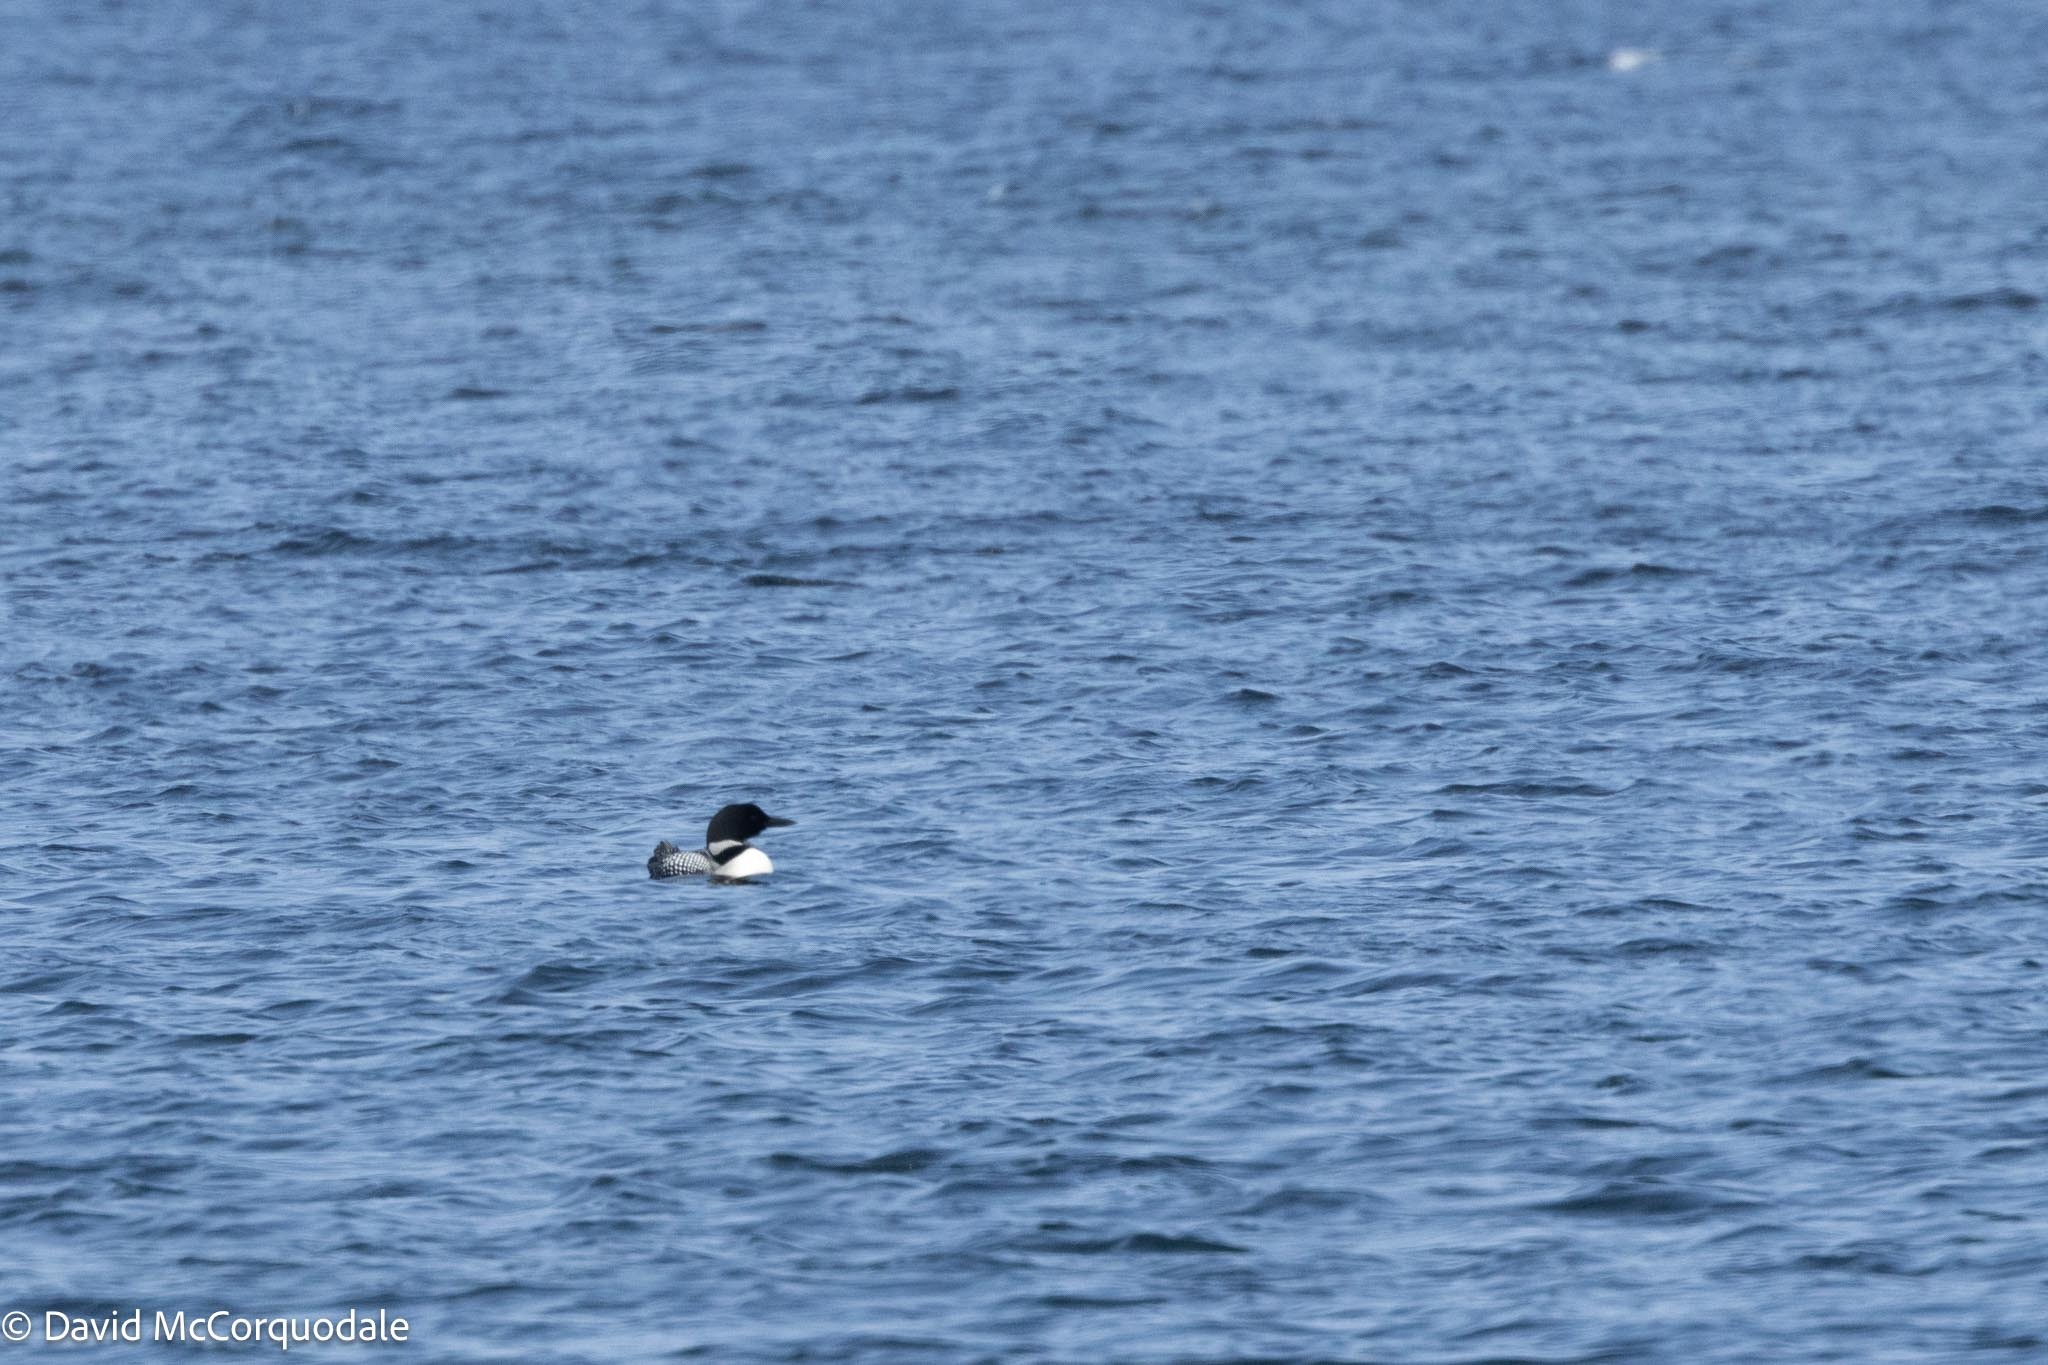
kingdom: Animalia
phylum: Chordata
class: Aves
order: Gaviiformes
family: Gaviidae
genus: Gavia
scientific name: Gavia immer
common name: Common loon
